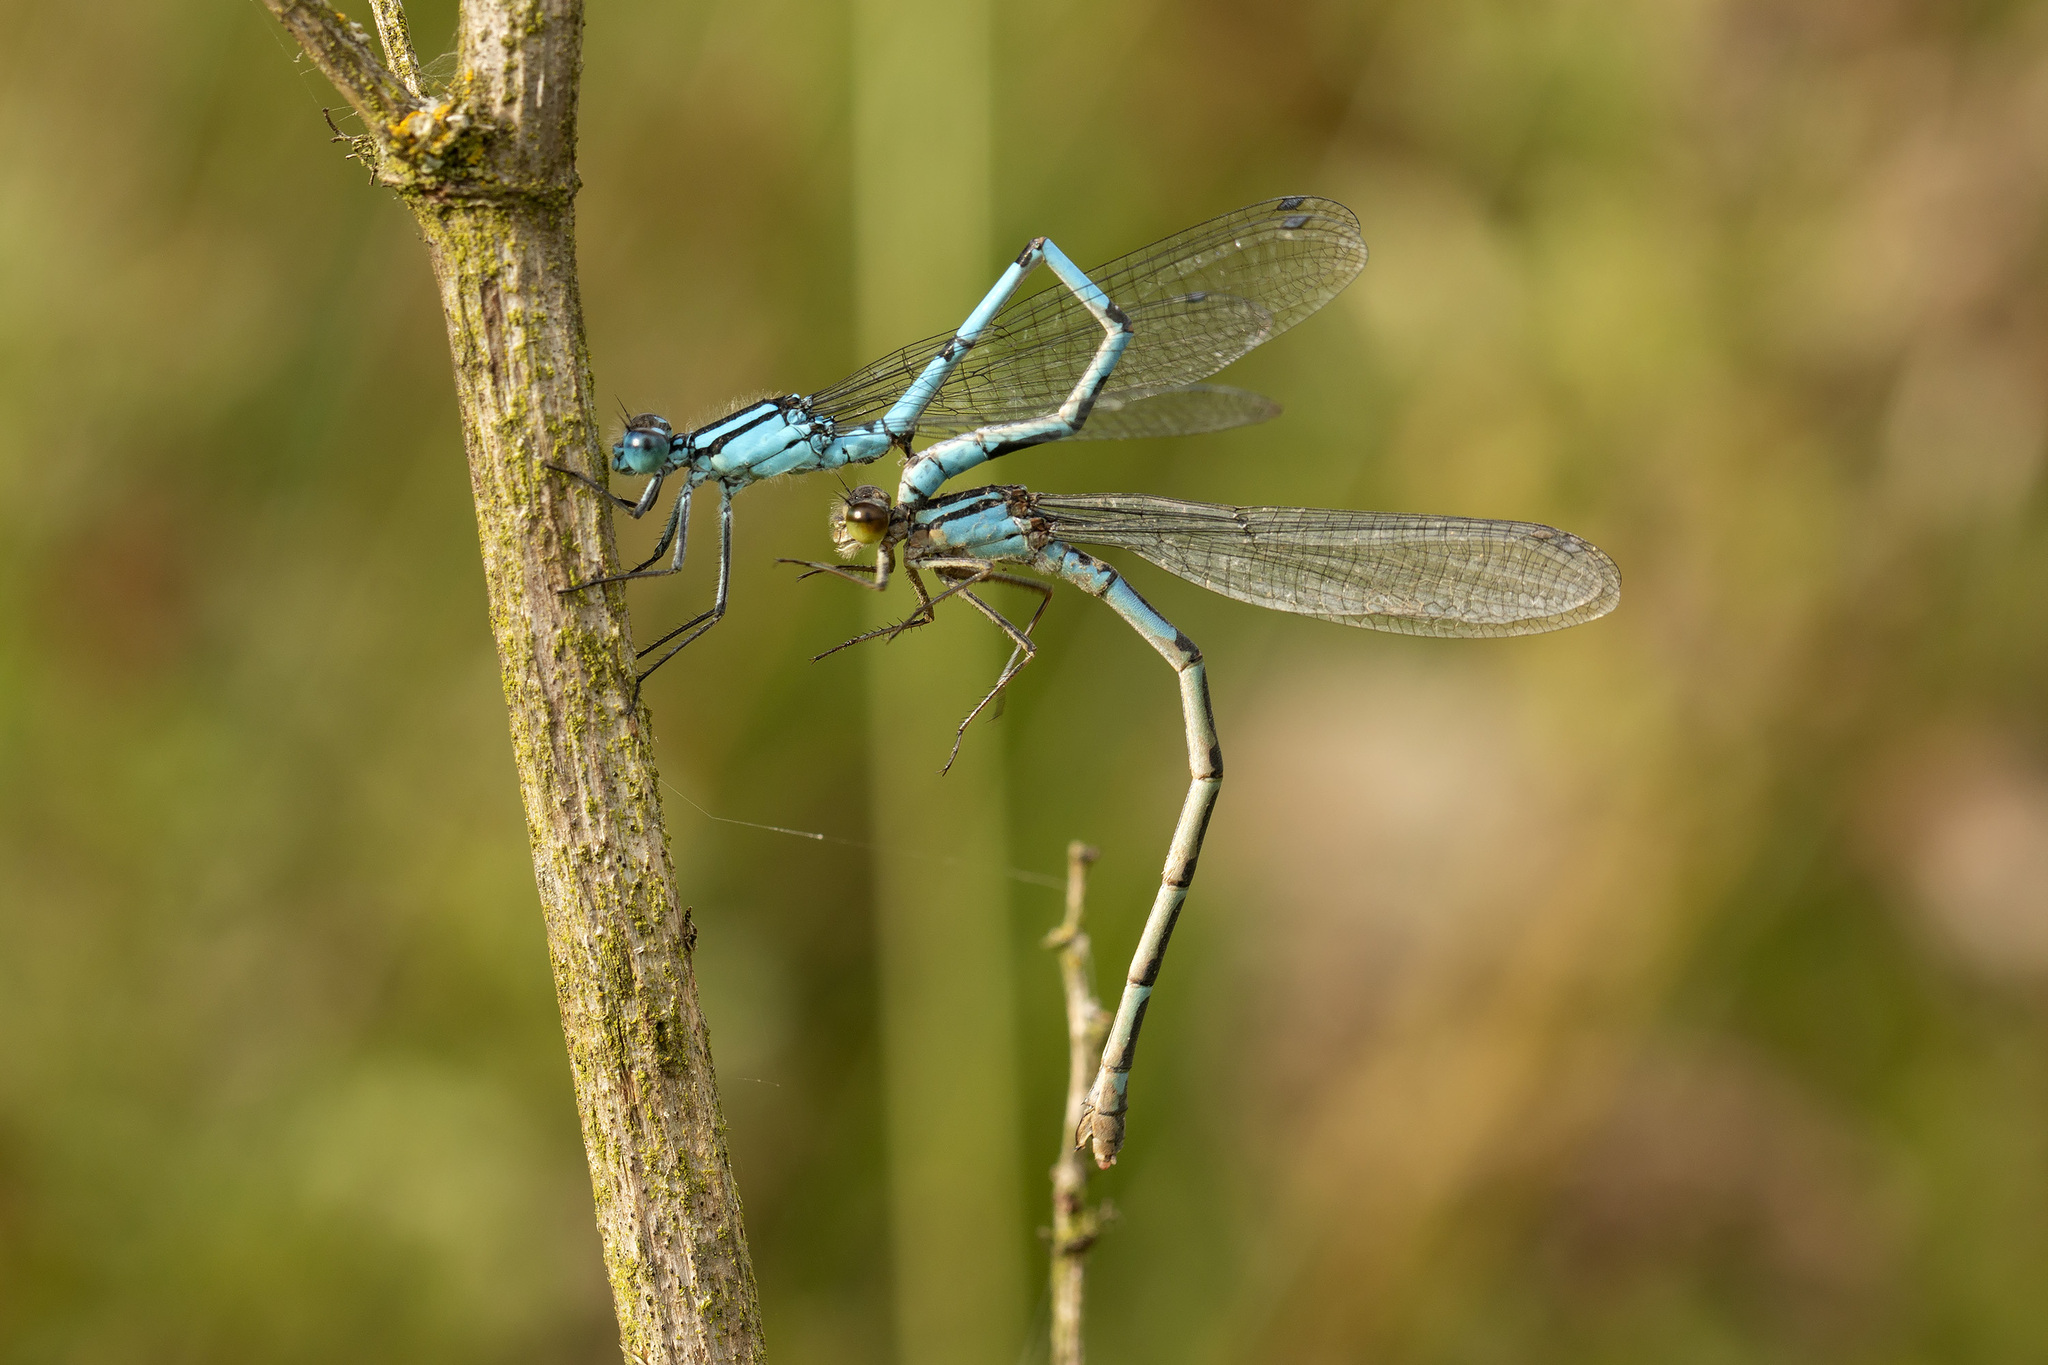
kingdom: Animalia
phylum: Arthropoda
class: Insecta
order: Odonata
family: Coenagrionidae
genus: Enallagma
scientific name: Enallagma cyathigerum
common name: Common blue damselfly
